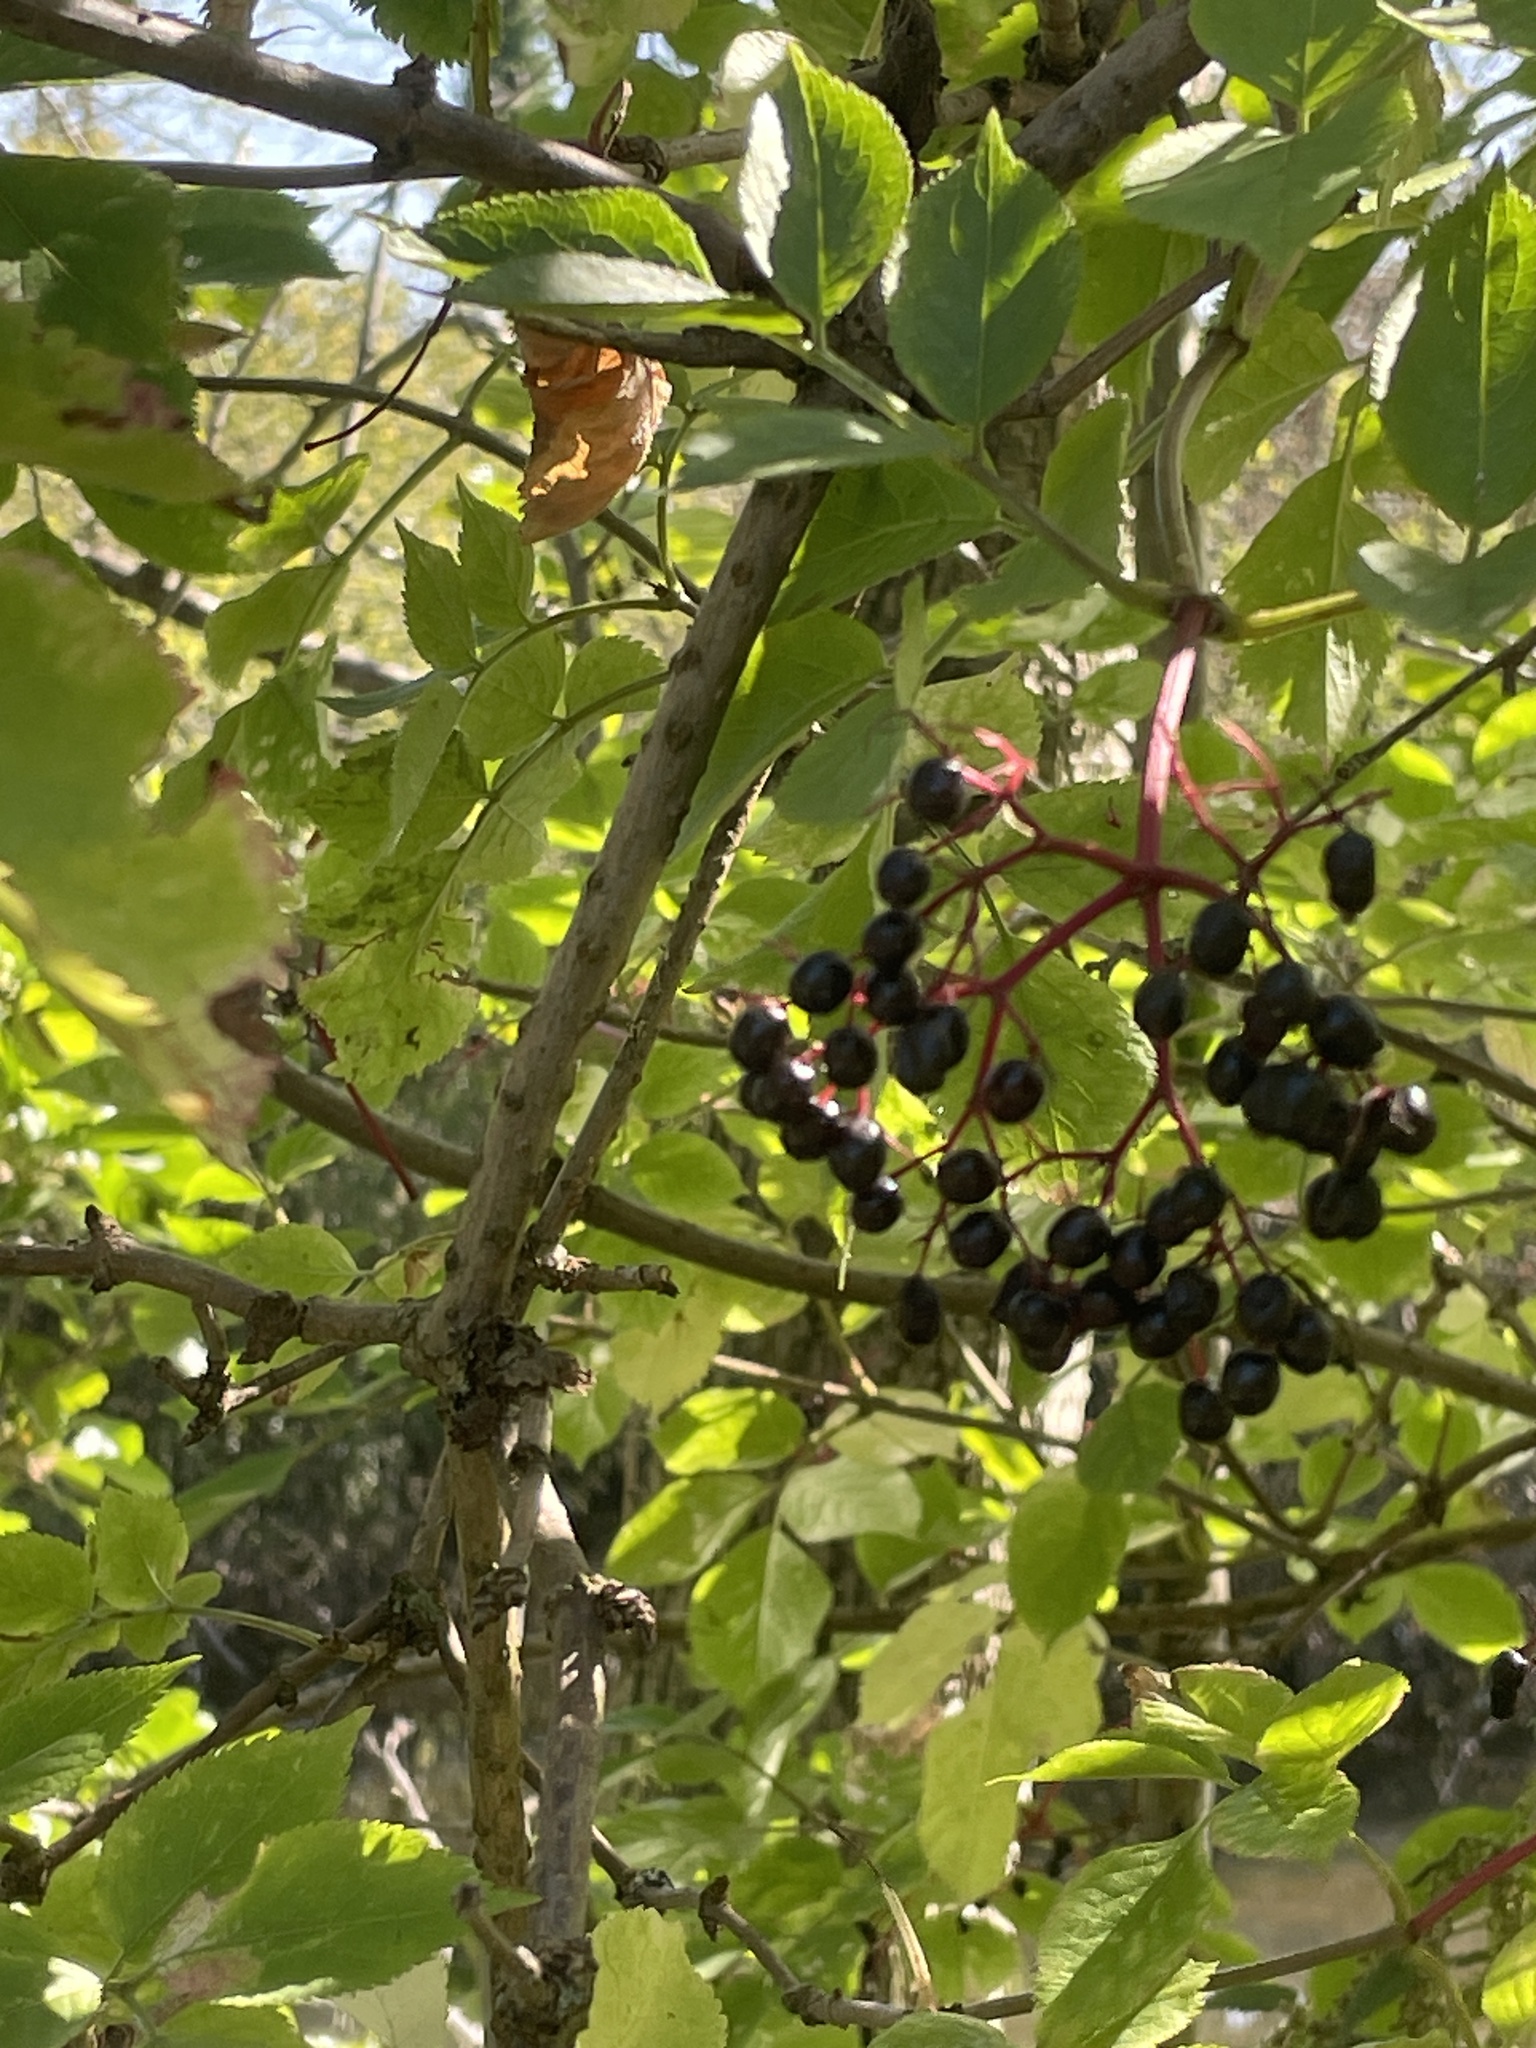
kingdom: Plantae
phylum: Tracheophyta
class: Magnoliopsida
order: Dipsacales
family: Viburnaceae
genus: Sambucus
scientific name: Sambucus nigra
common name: Elder
